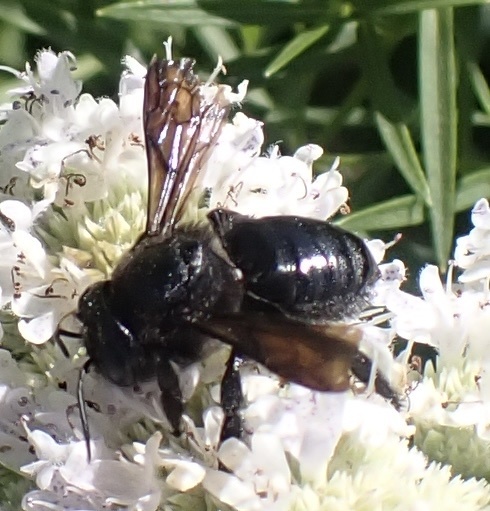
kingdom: Animalia
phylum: Arthropoda
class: Insecta
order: Hymenoptera
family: Megachilidae
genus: Megachile
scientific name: Megachile xylocopoides
